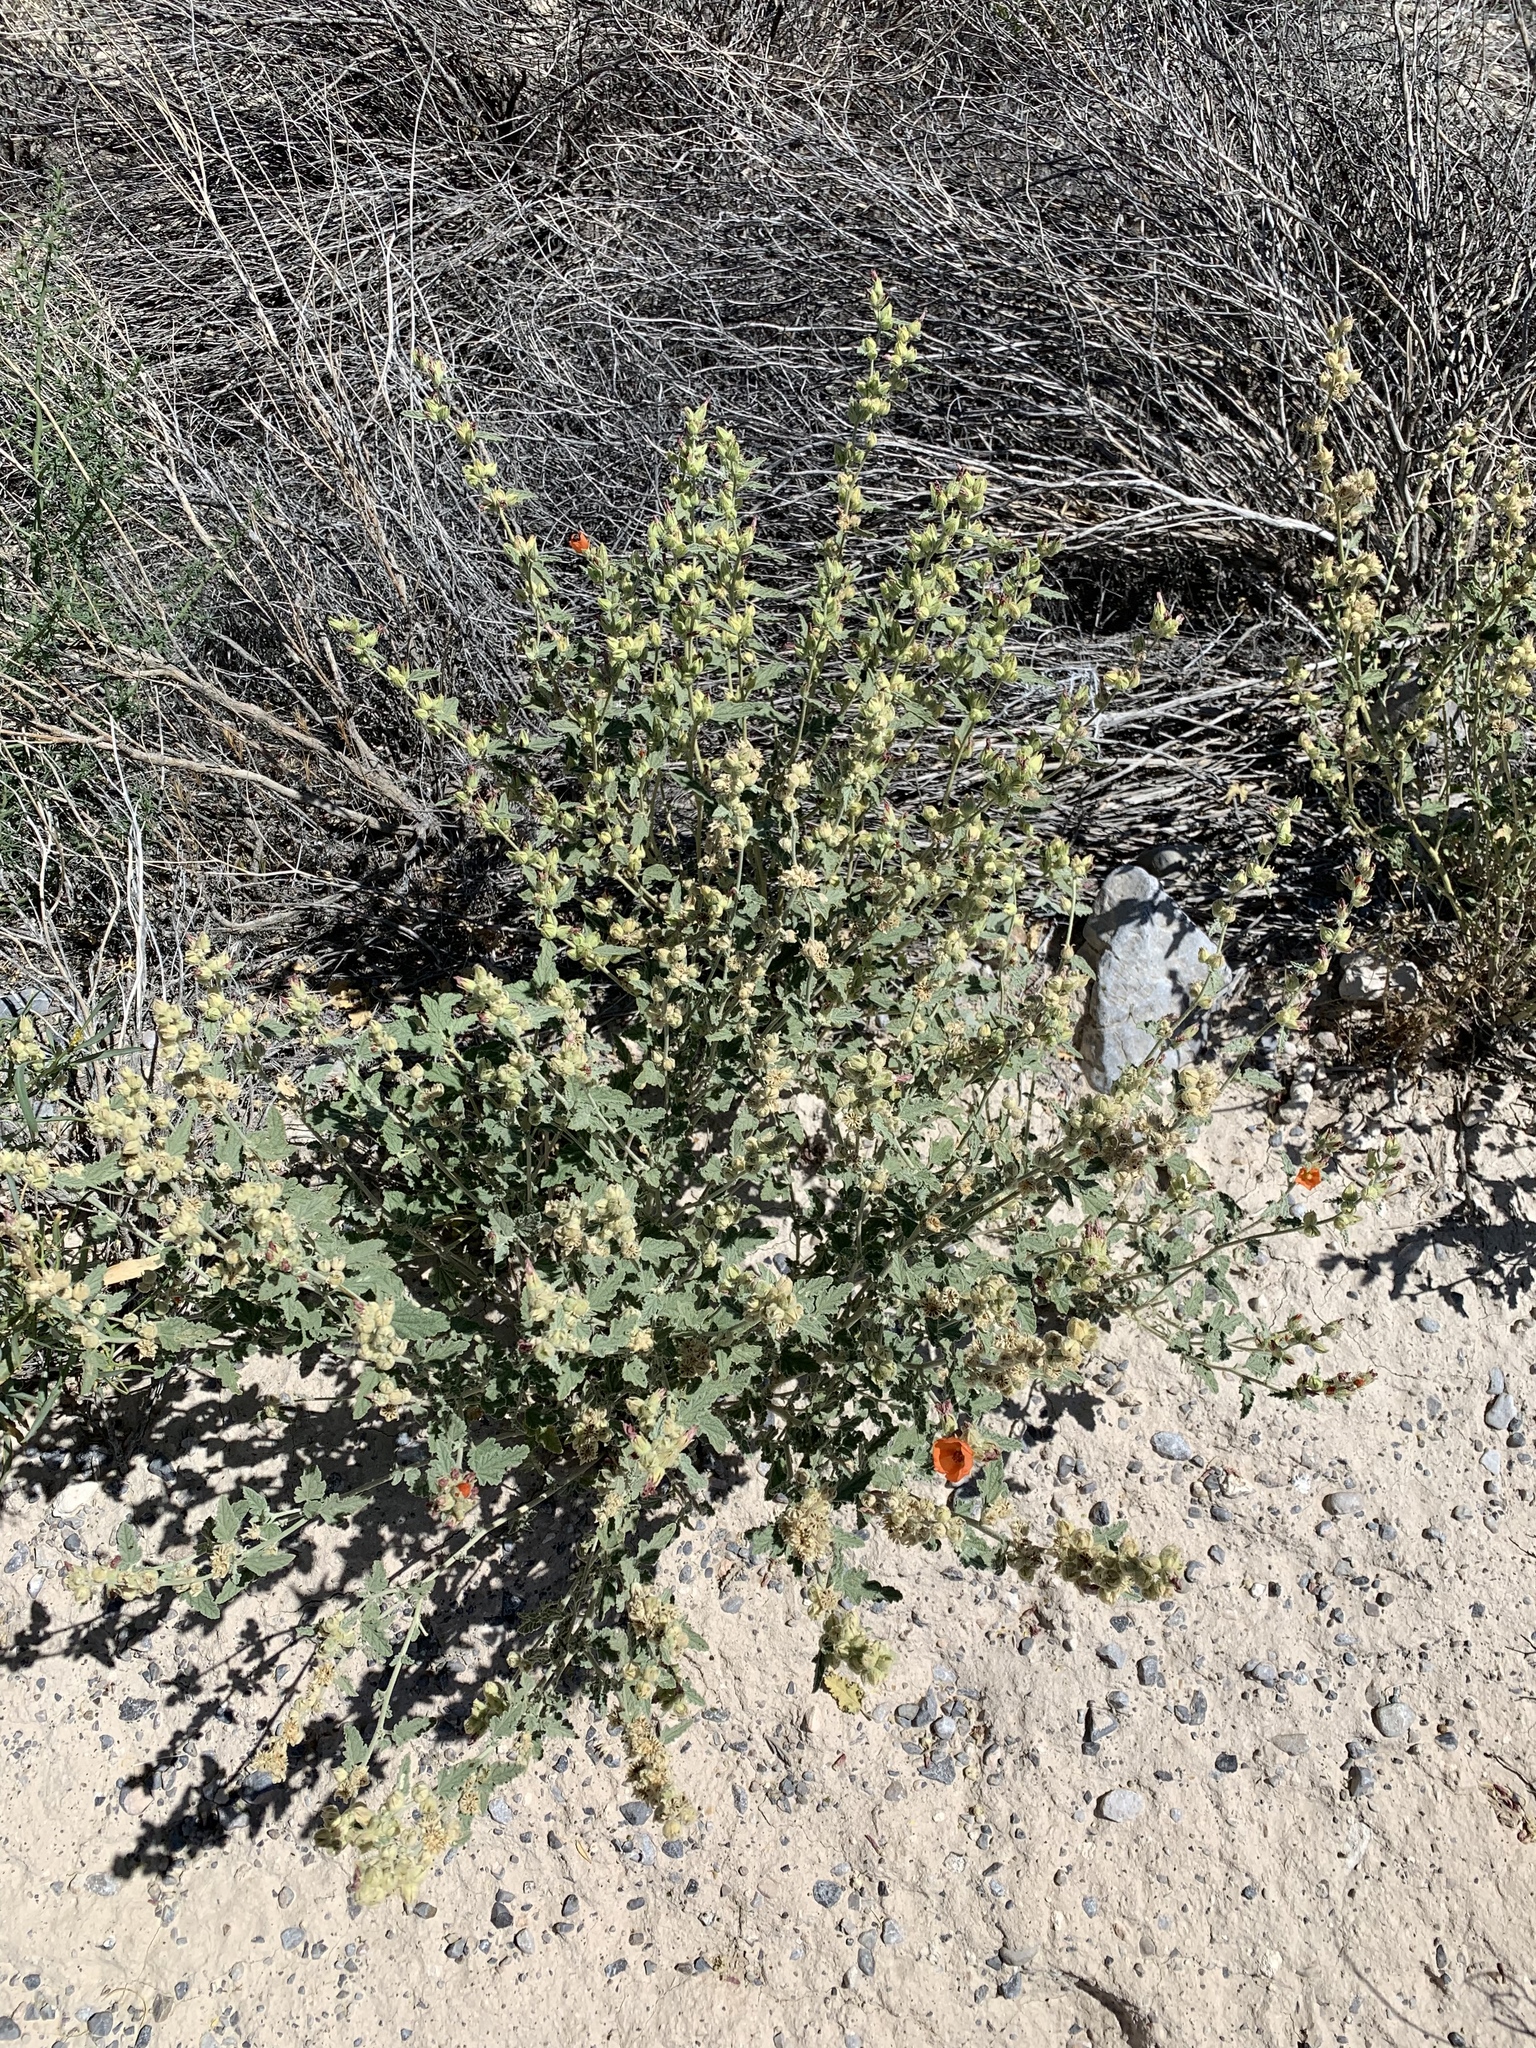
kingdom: Plantae
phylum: Tracheophyta
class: Magnoliopsida
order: Malvales
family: Malvaceae
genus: Sphaeralcea
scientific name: Sphaeralcea ambigua
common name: Apricot globe-mallow
